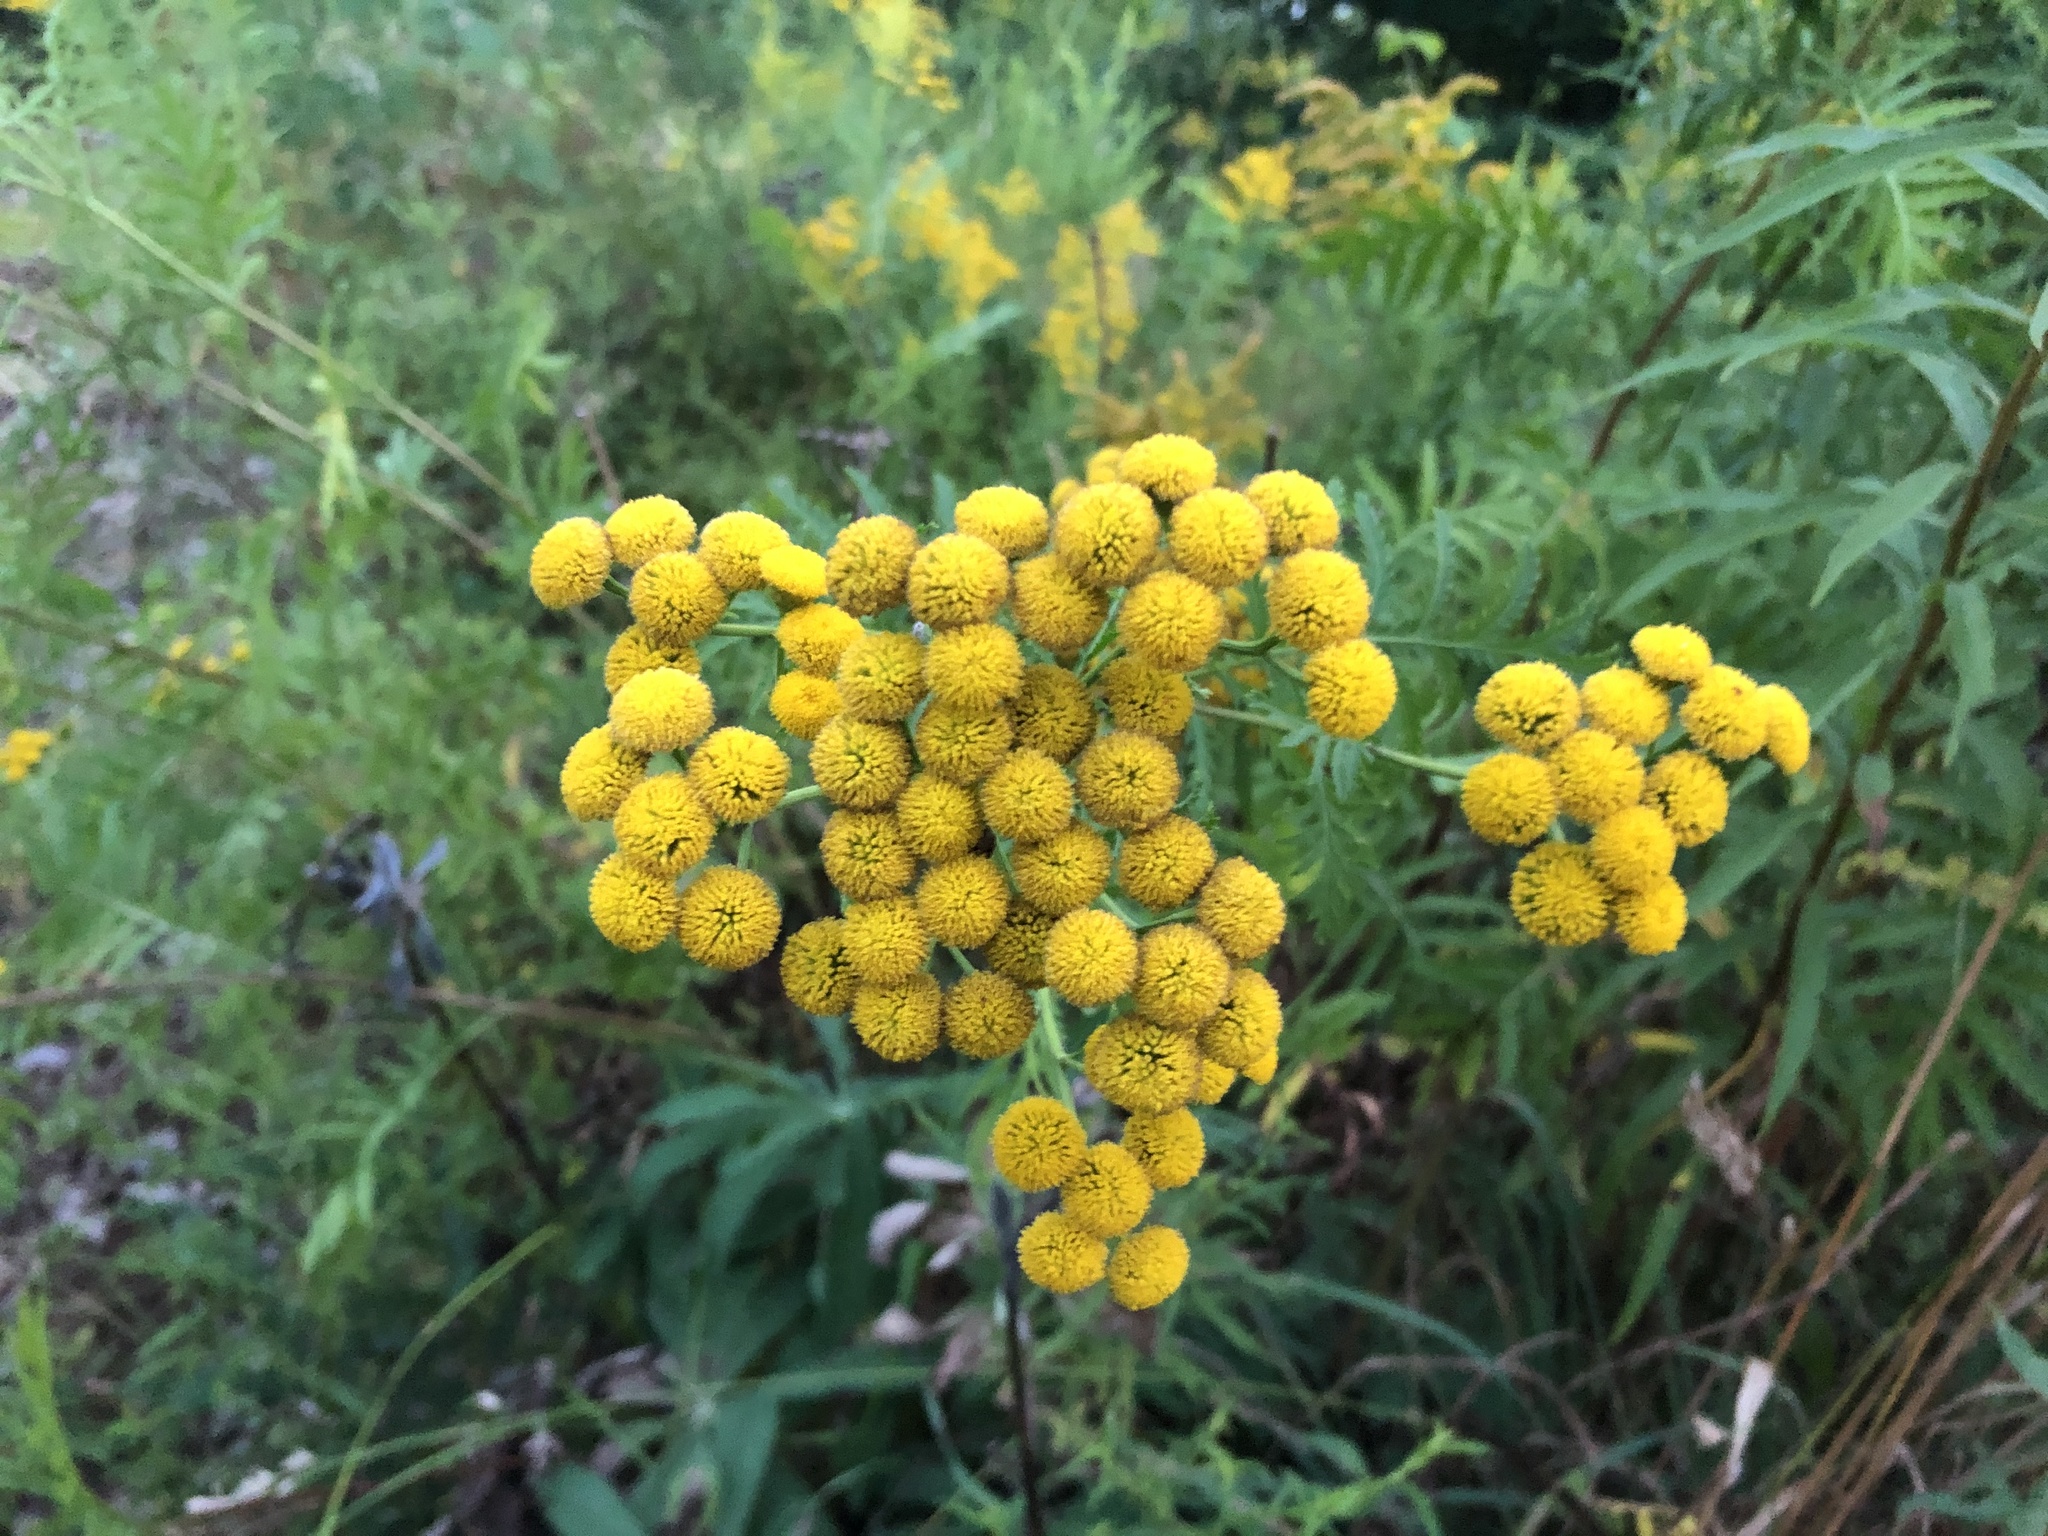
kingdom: Plantae
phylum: Tracheophyta
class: Magnoliopsida
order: Asterales
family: Asteraceae
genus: Tanacetum
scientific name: Tanacetum vulgare
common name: Common tansy
